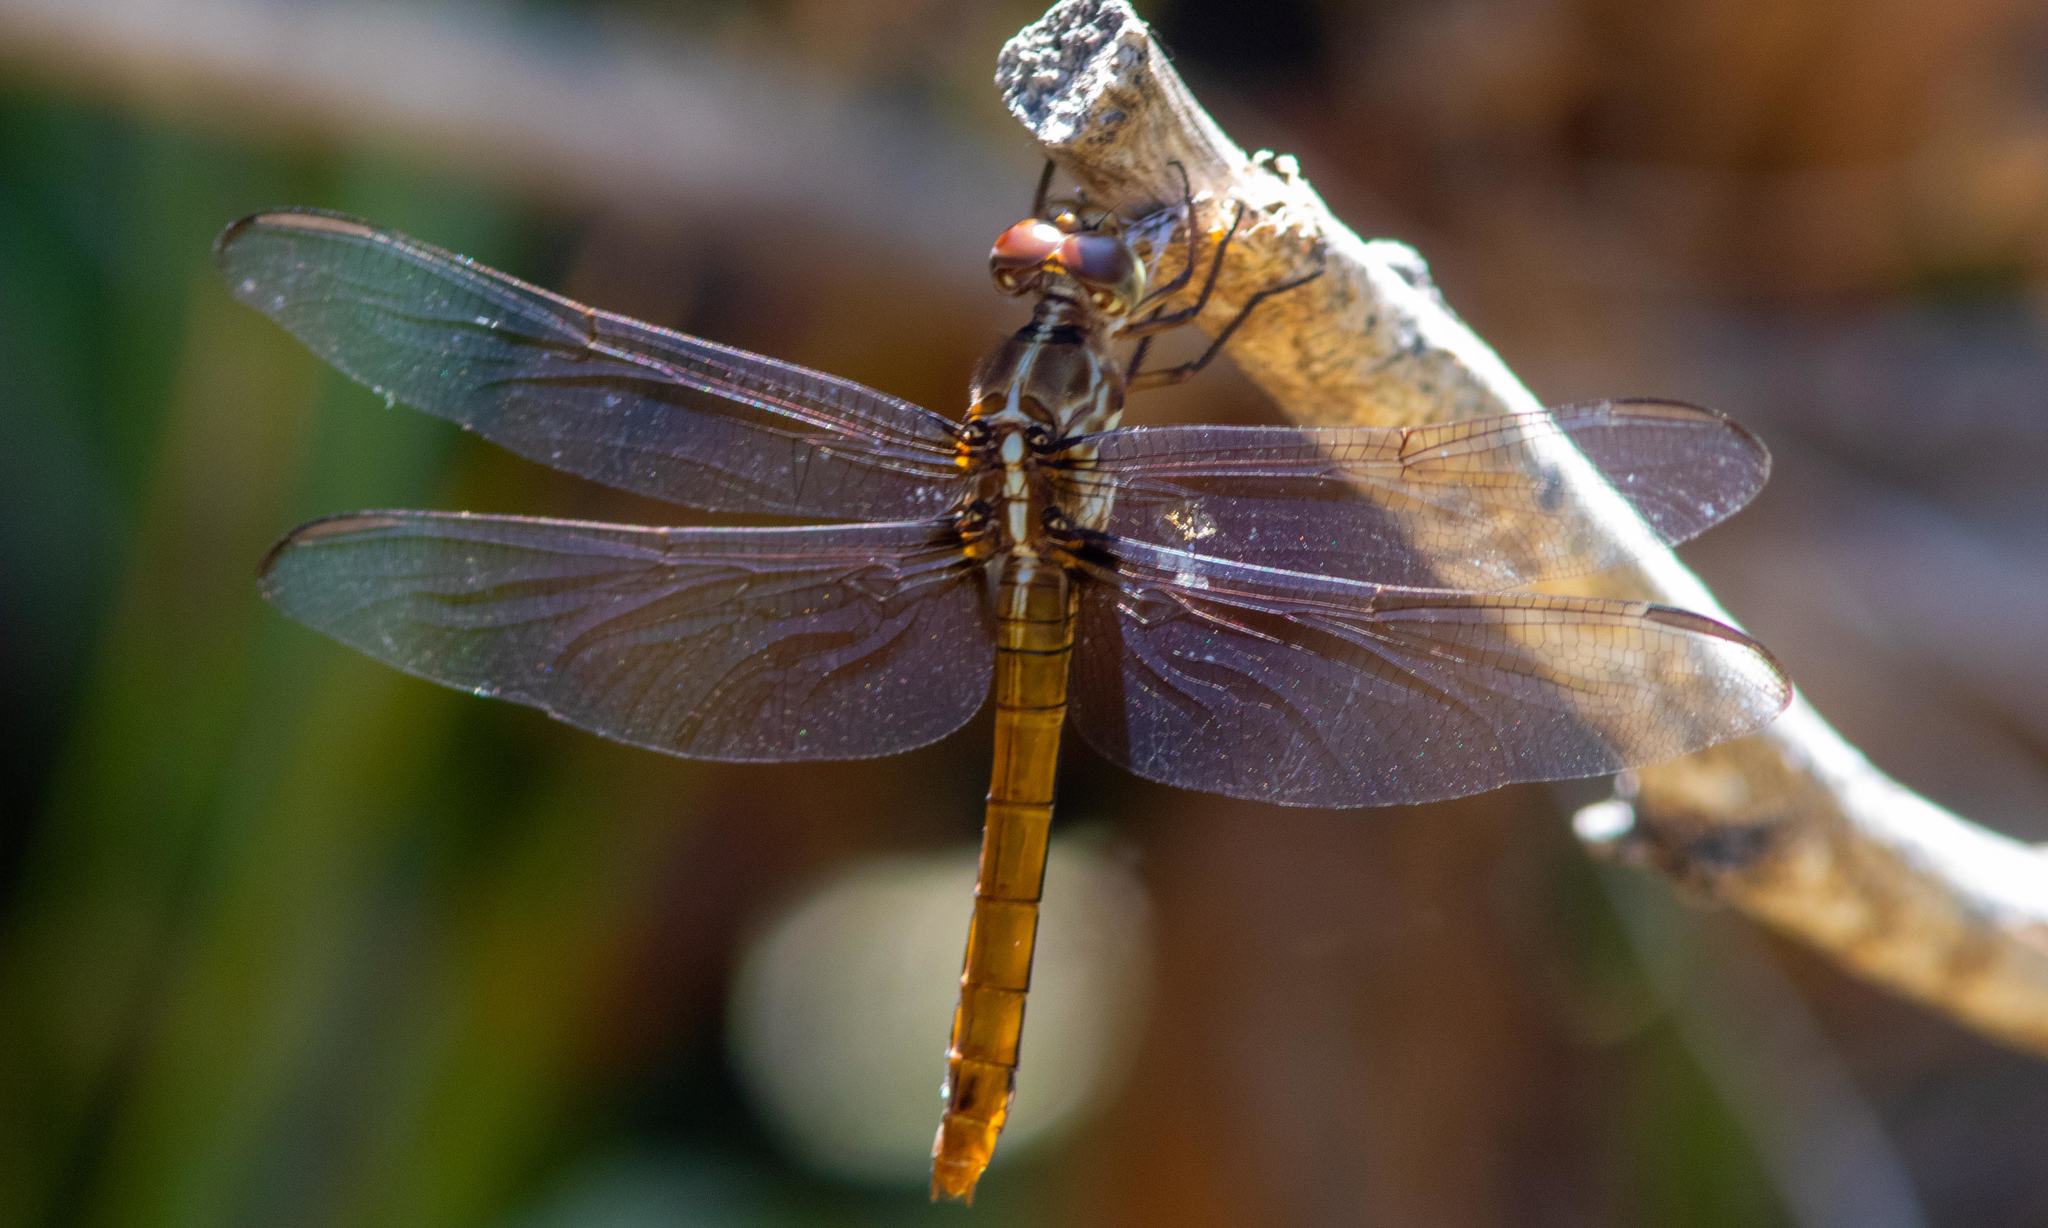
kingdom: Animalia
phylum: Arthropoda
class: Insecta
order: Odonata
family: Libellulidae
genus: Orthemis
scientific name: Orthemis ferruginea
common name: Roseate skimmer
